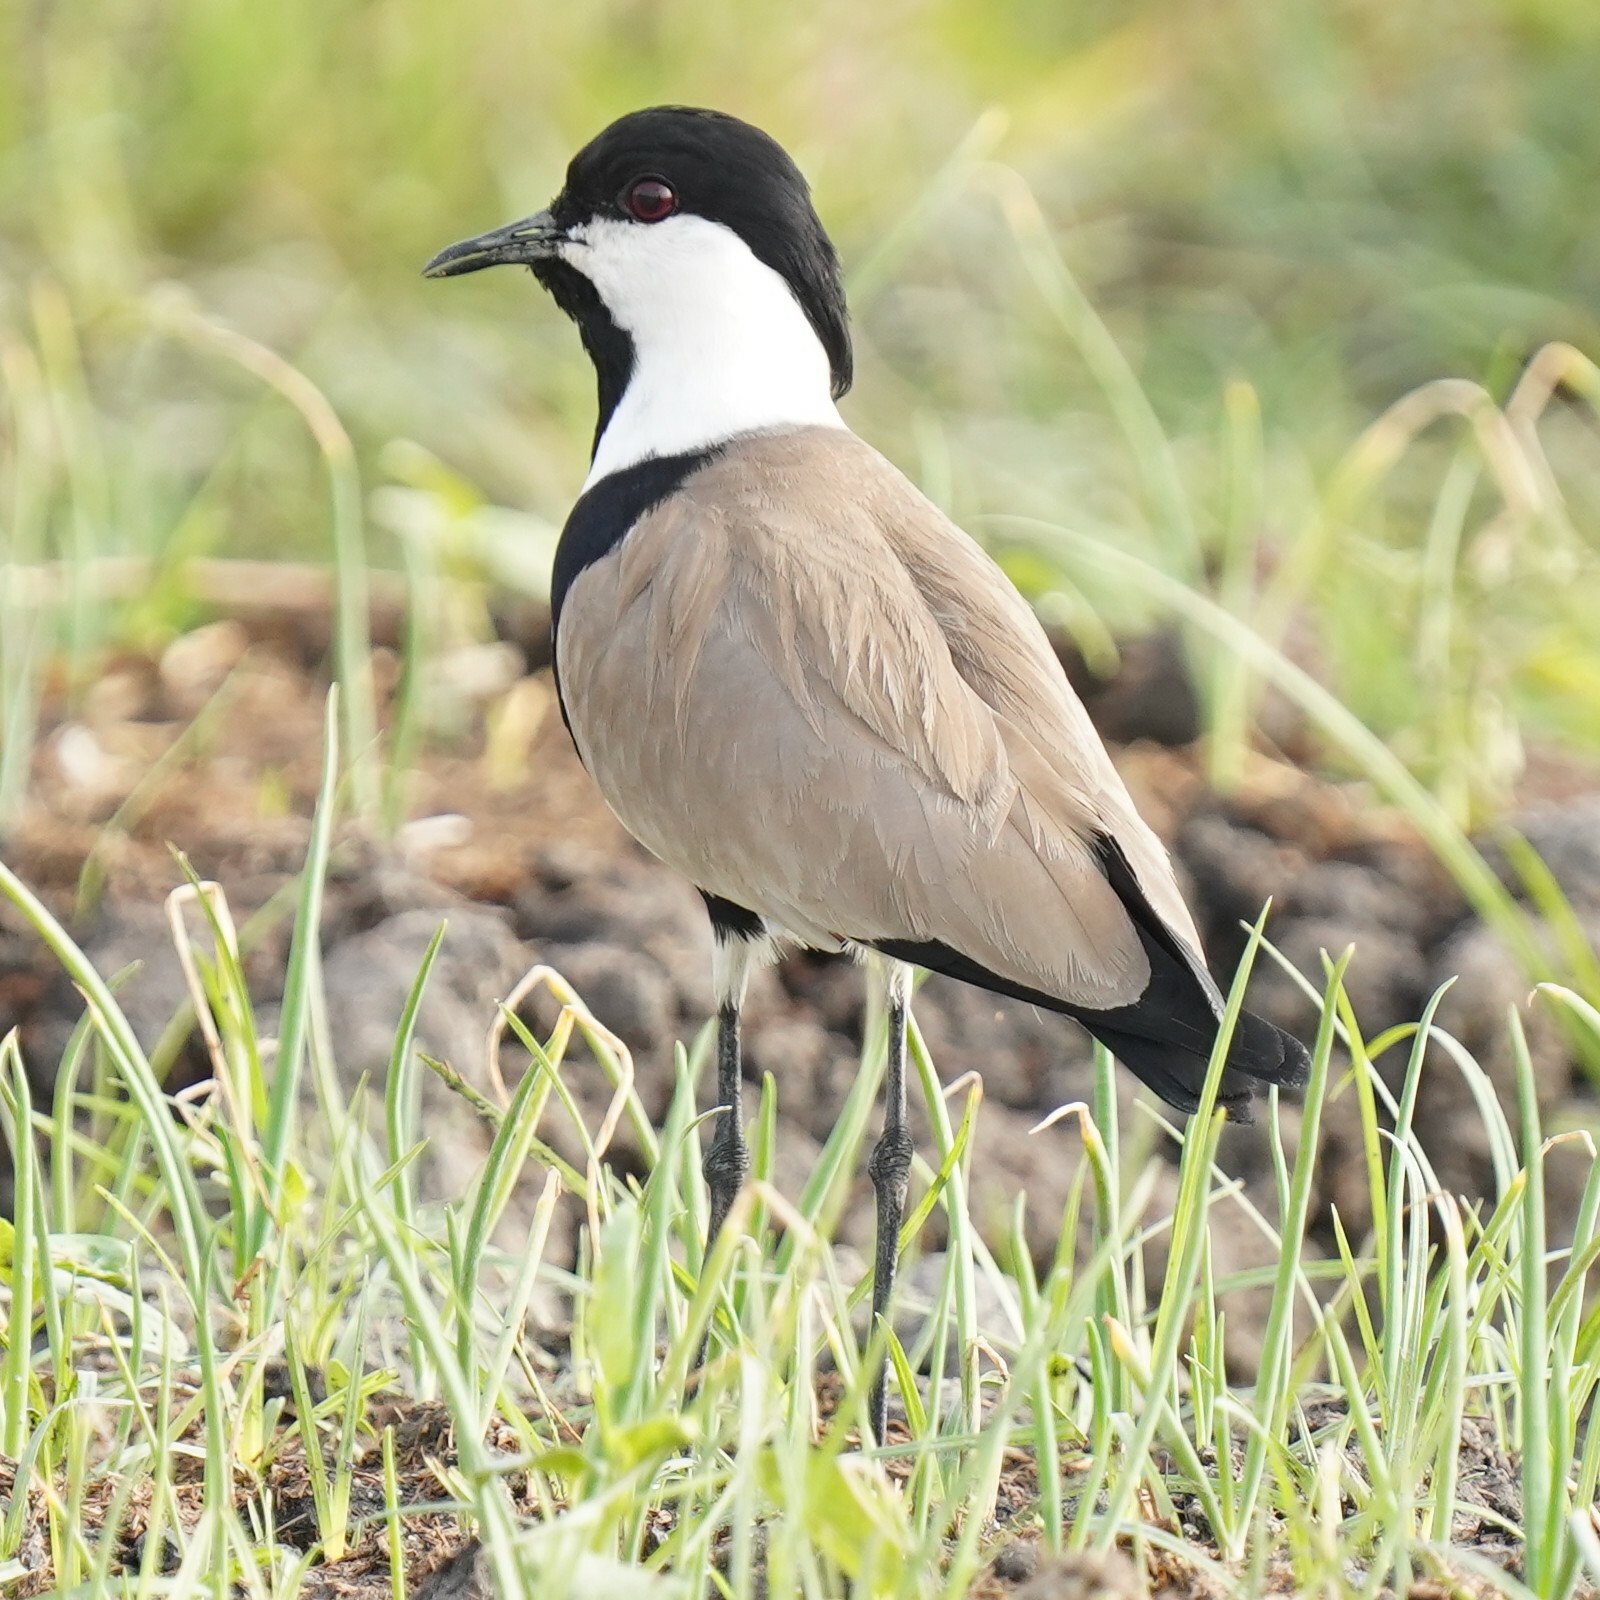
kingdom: Animalia
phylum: Chordata
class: Aves
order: Charadriiformes
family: Charadriidae
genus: Vanellus
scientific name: Vanellus spinosus
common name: Spur-winged lapwing
